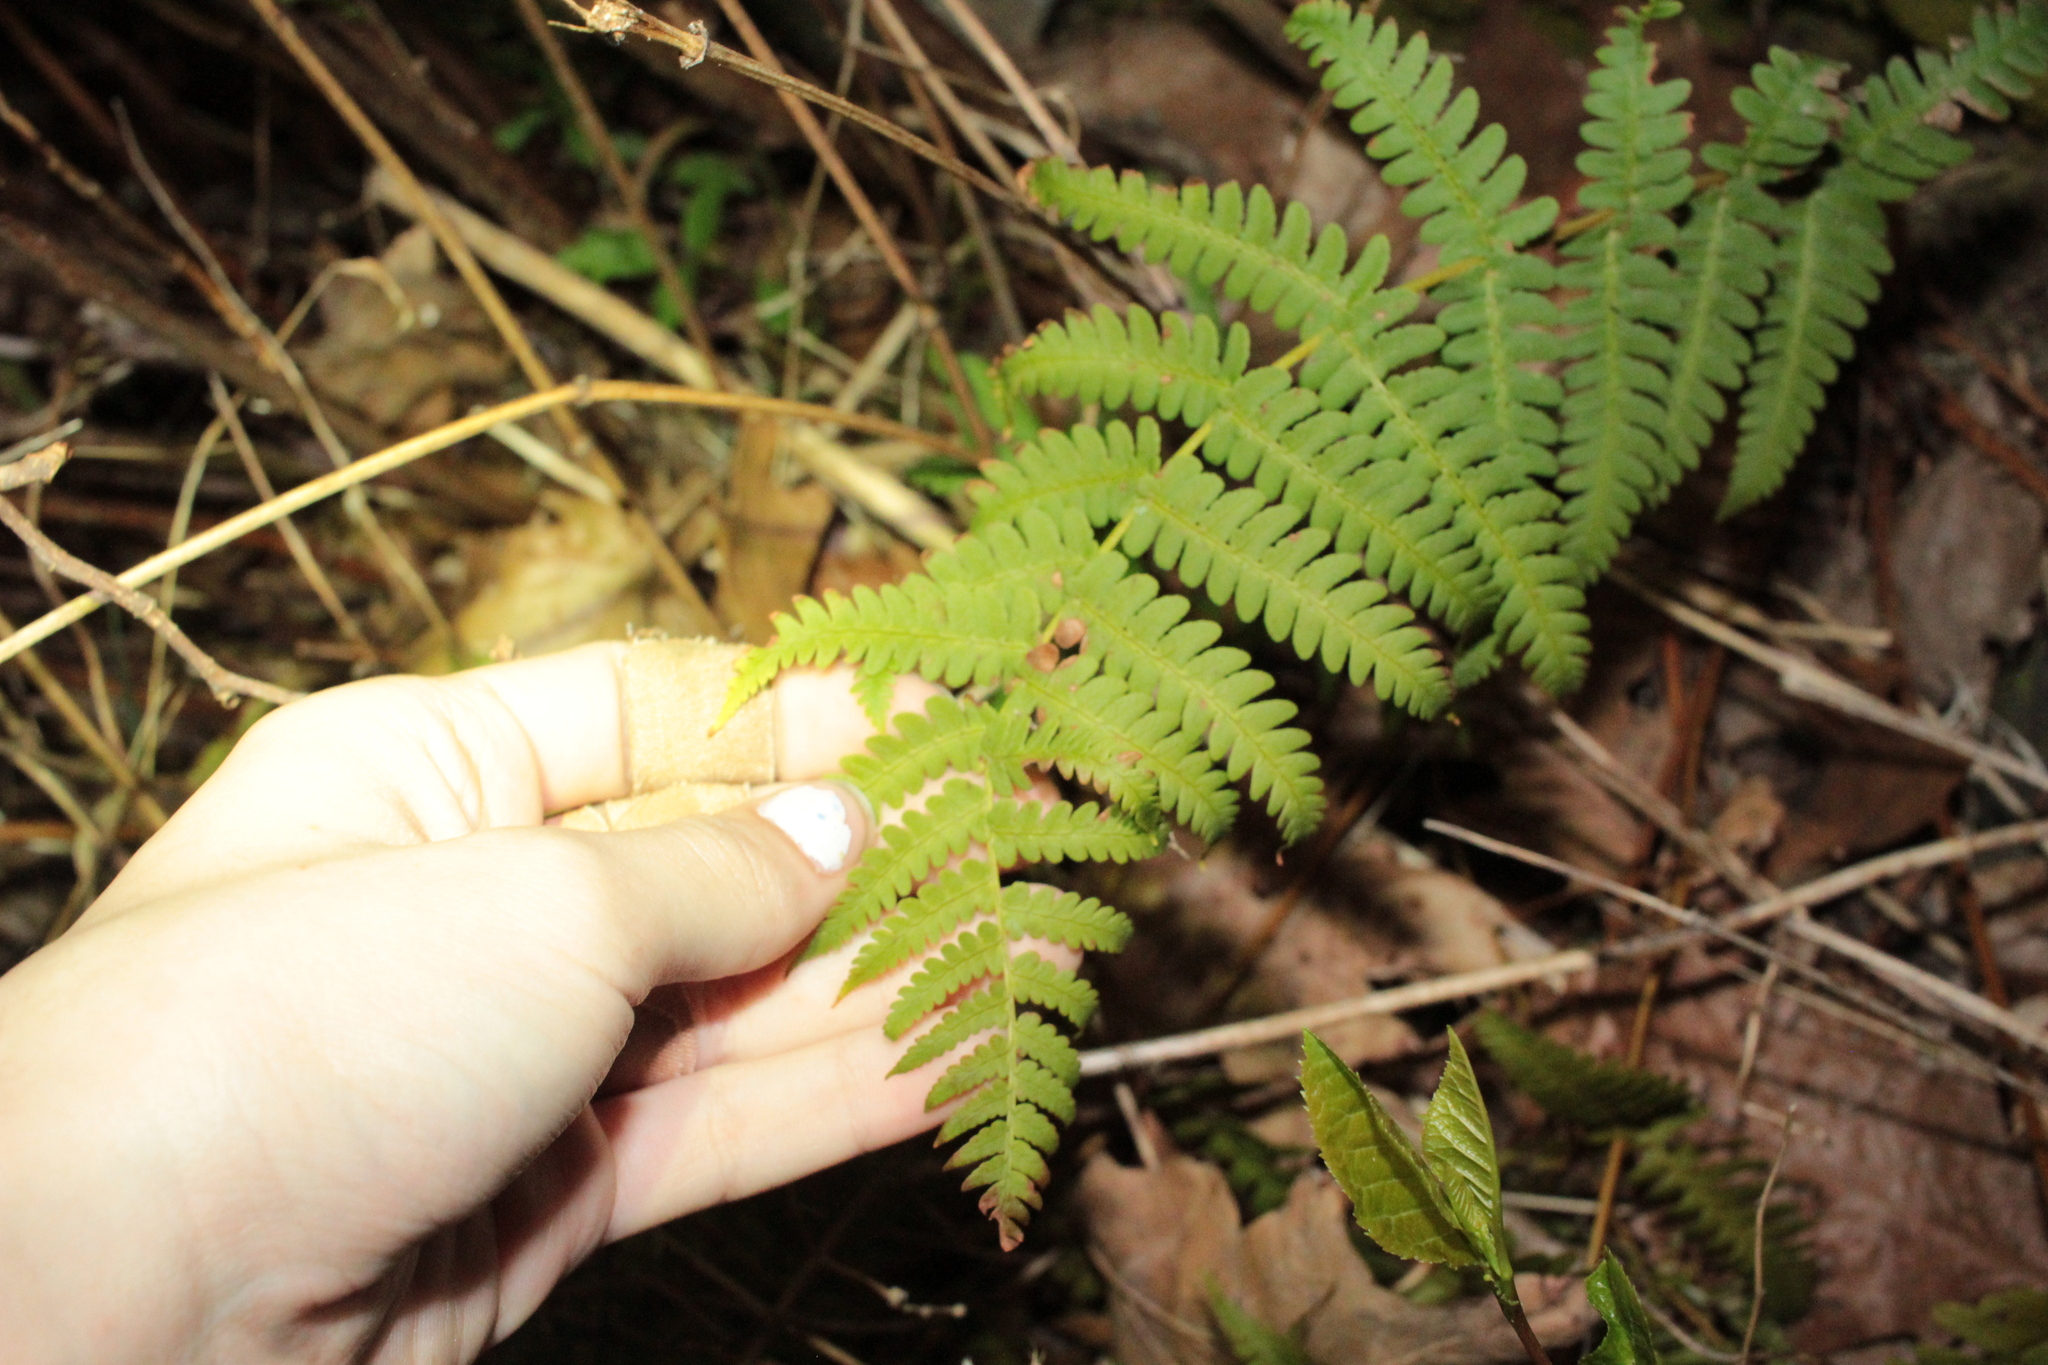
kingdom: Plantae
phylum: Tracheophyta
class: Polypodiopsida
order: Polypodiales
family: Dryopteridaceae
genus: Dryopteris
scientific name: Dryopteris marginalis
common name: Marginal wood fern
